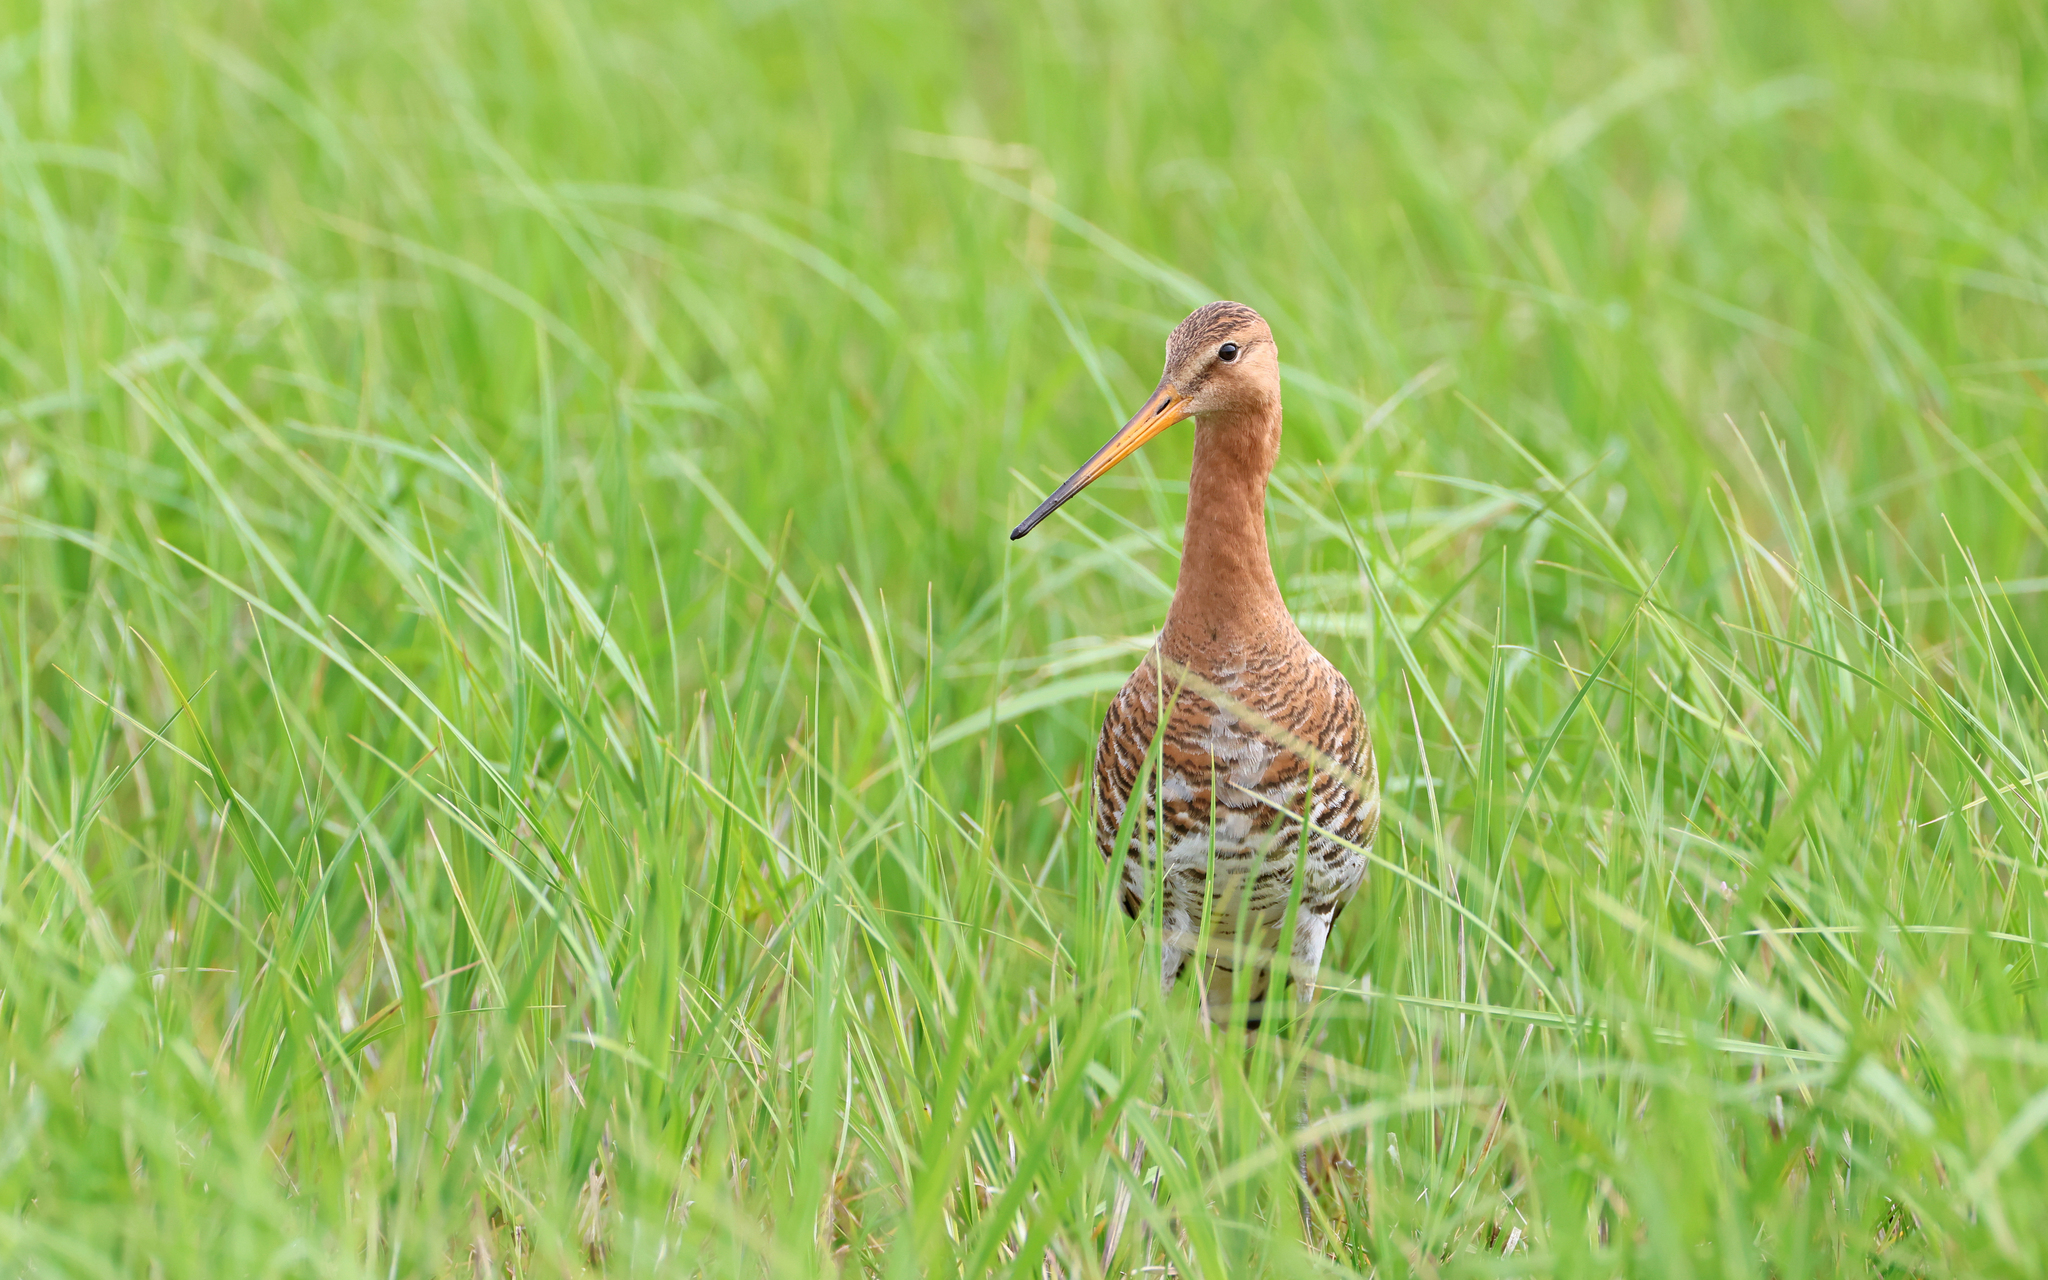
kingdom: Animalia
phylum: Chordata
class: Aves
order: Charadriiformes
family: Scolopacidae
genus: Limosa
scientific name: Limosa limosa
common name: Black-tailed godwit
